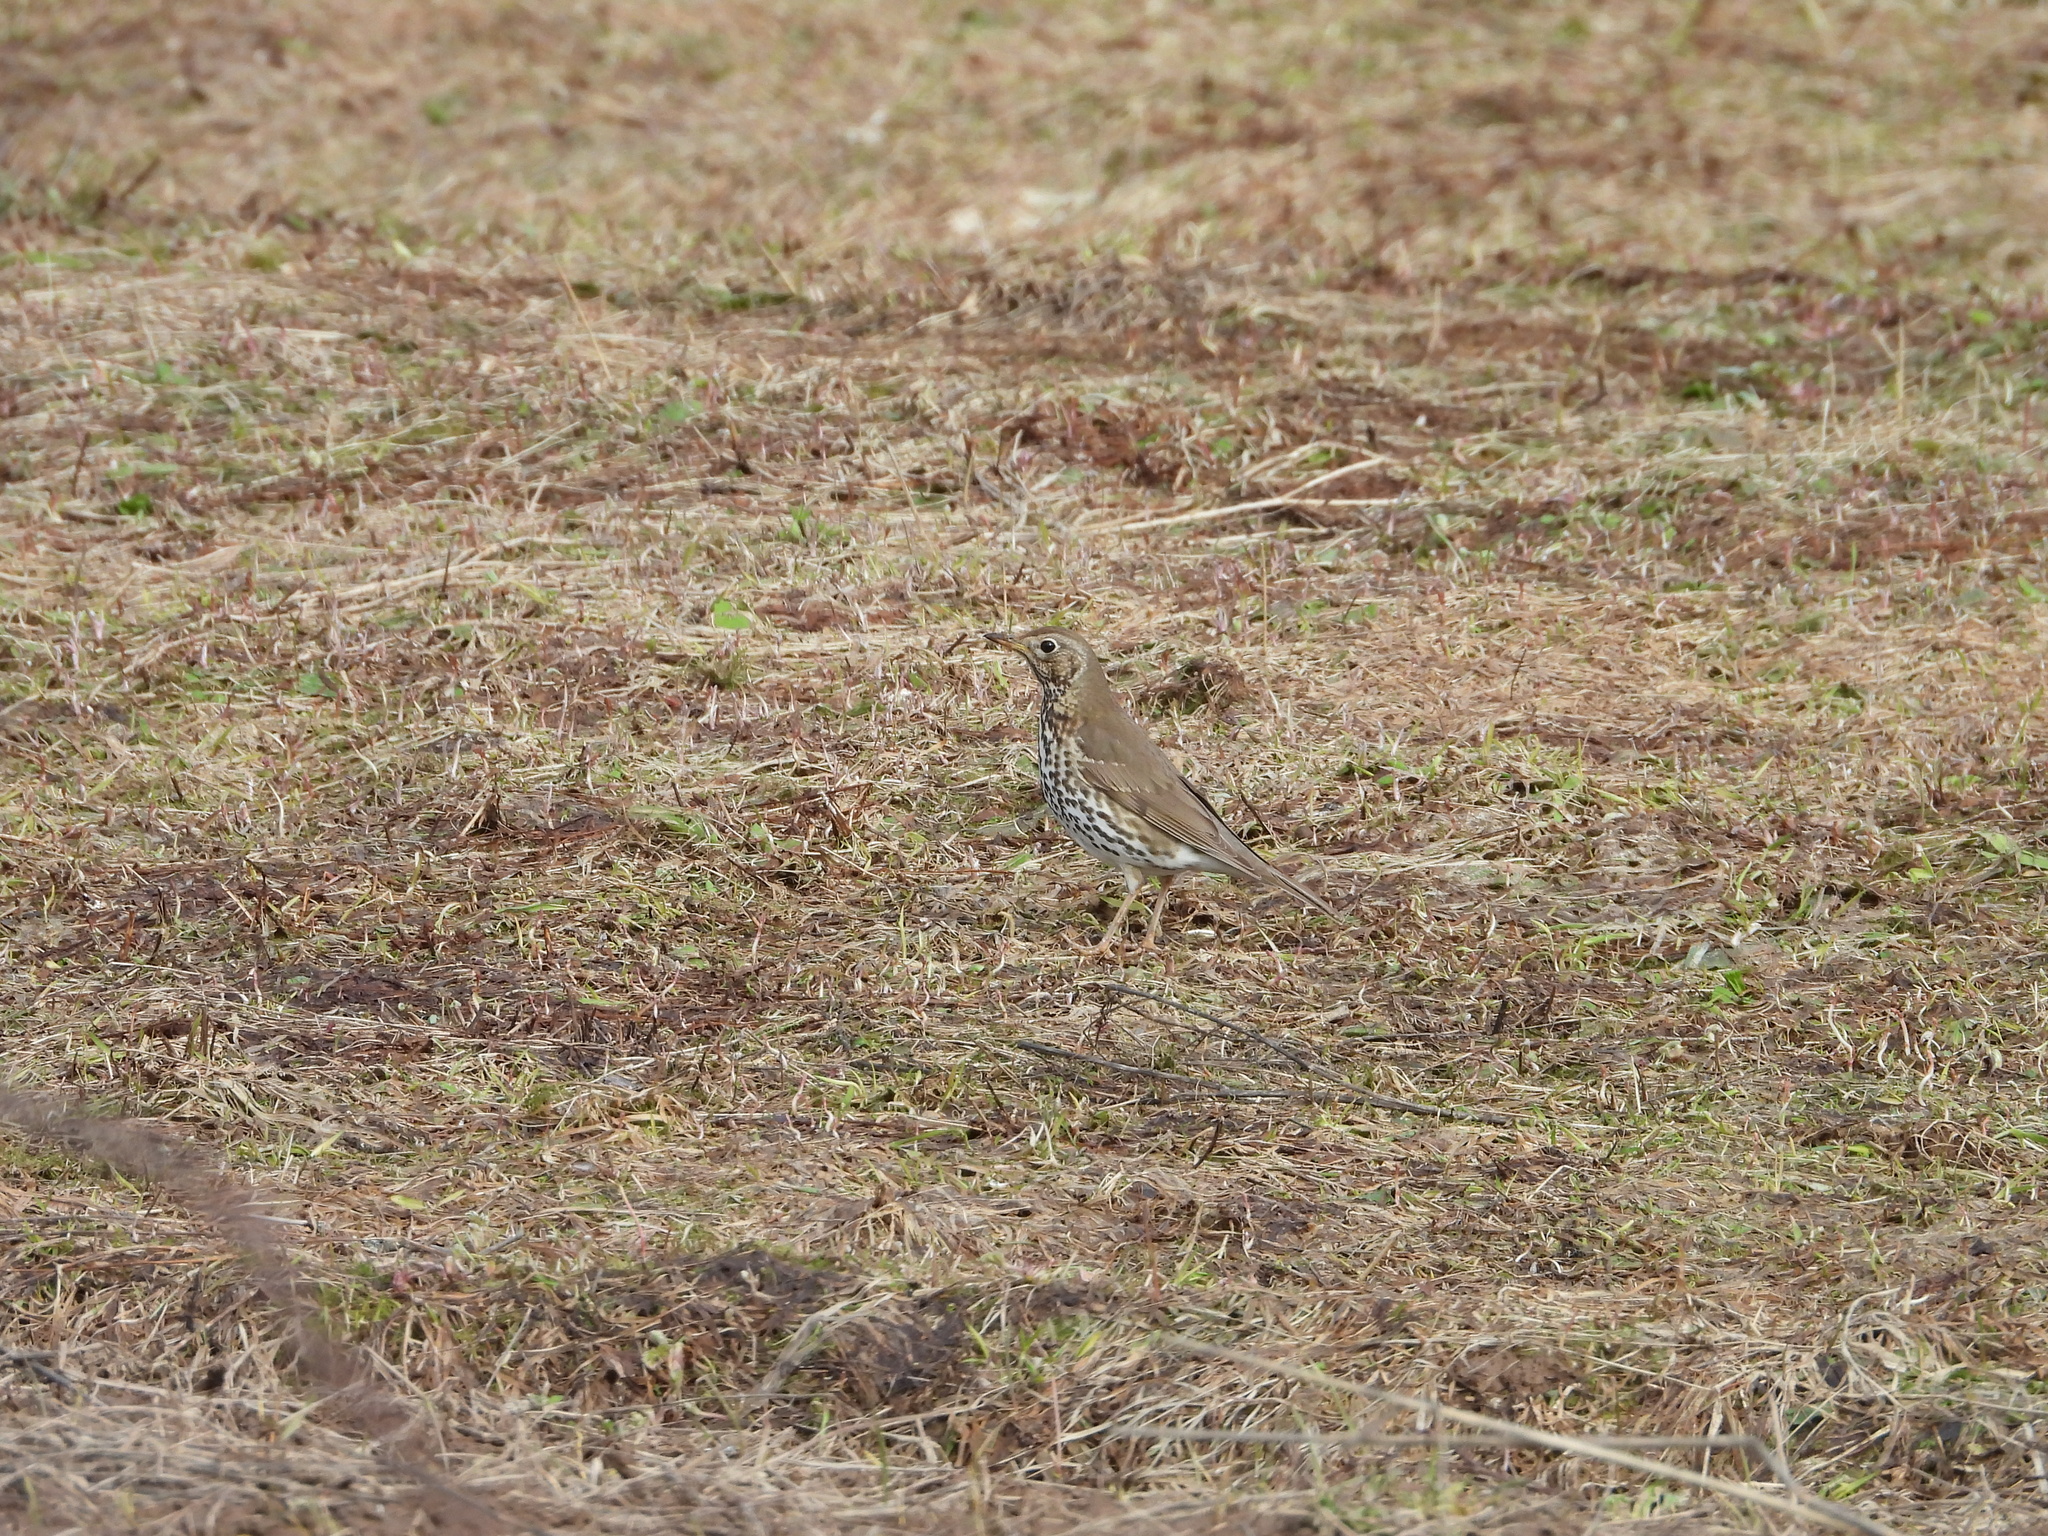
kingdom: Animalia
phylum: Chordata
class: Aves
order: Passeriformes
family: Turdidae
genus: Turdus
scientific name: Turdus philomelos
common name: Song thrush
